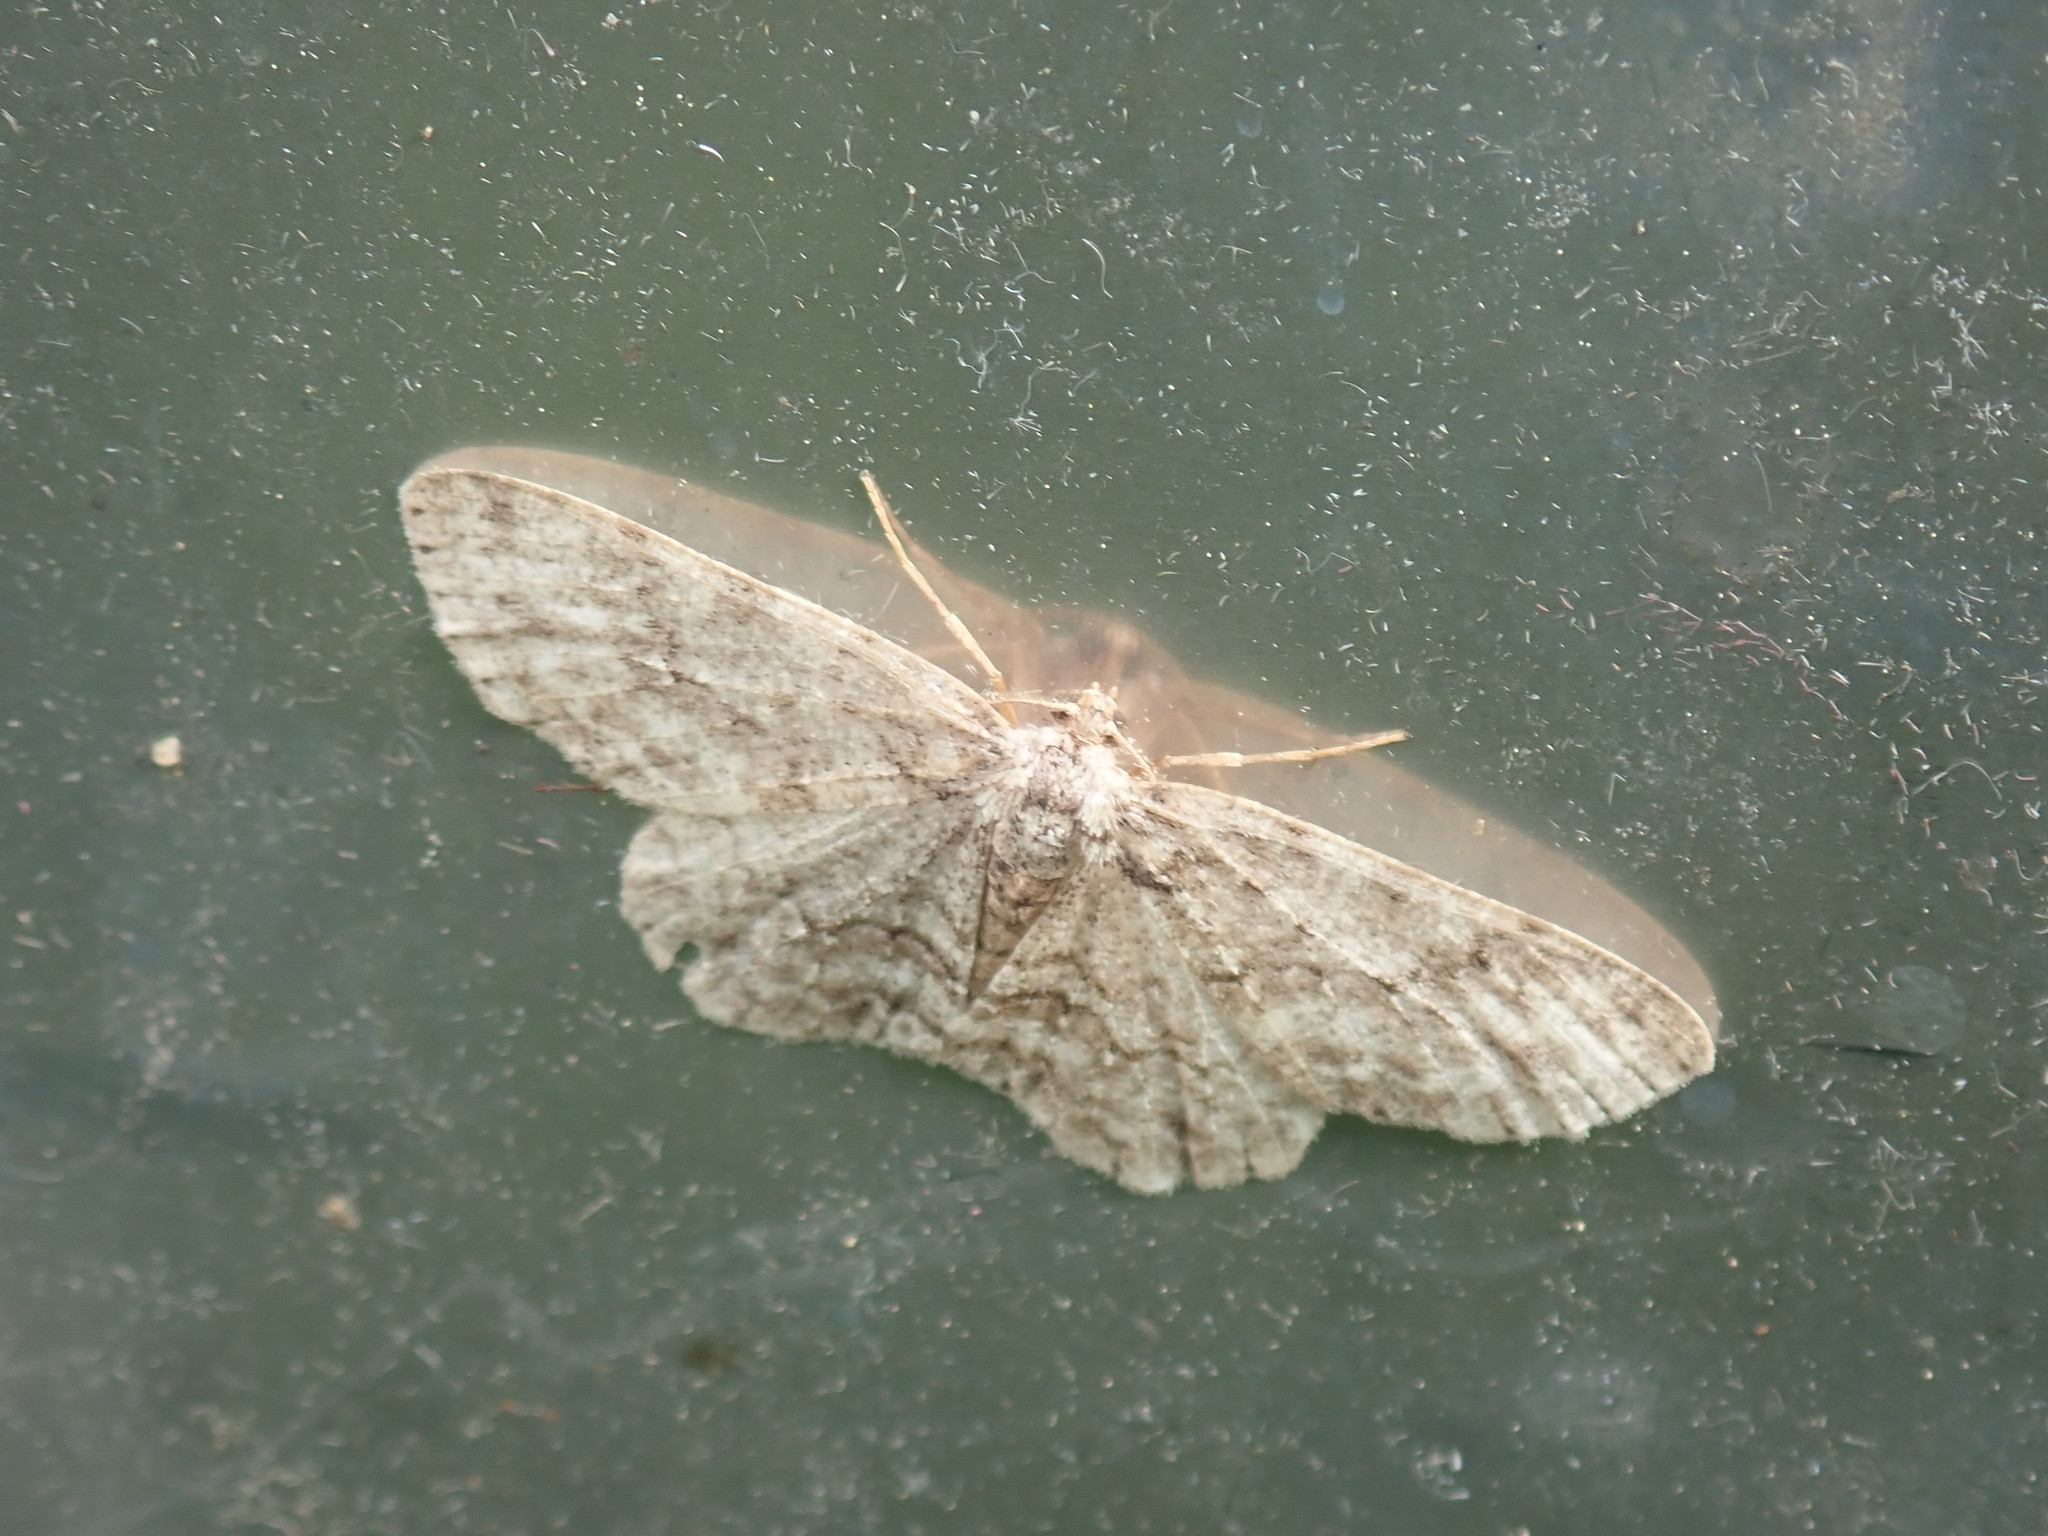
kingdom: Animalia
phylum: Arthropoda
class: Insecta
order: Lepidoptera
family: Geometridae
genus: Ectropis
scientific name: Ectropis crepuscularia
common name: Engrailed
